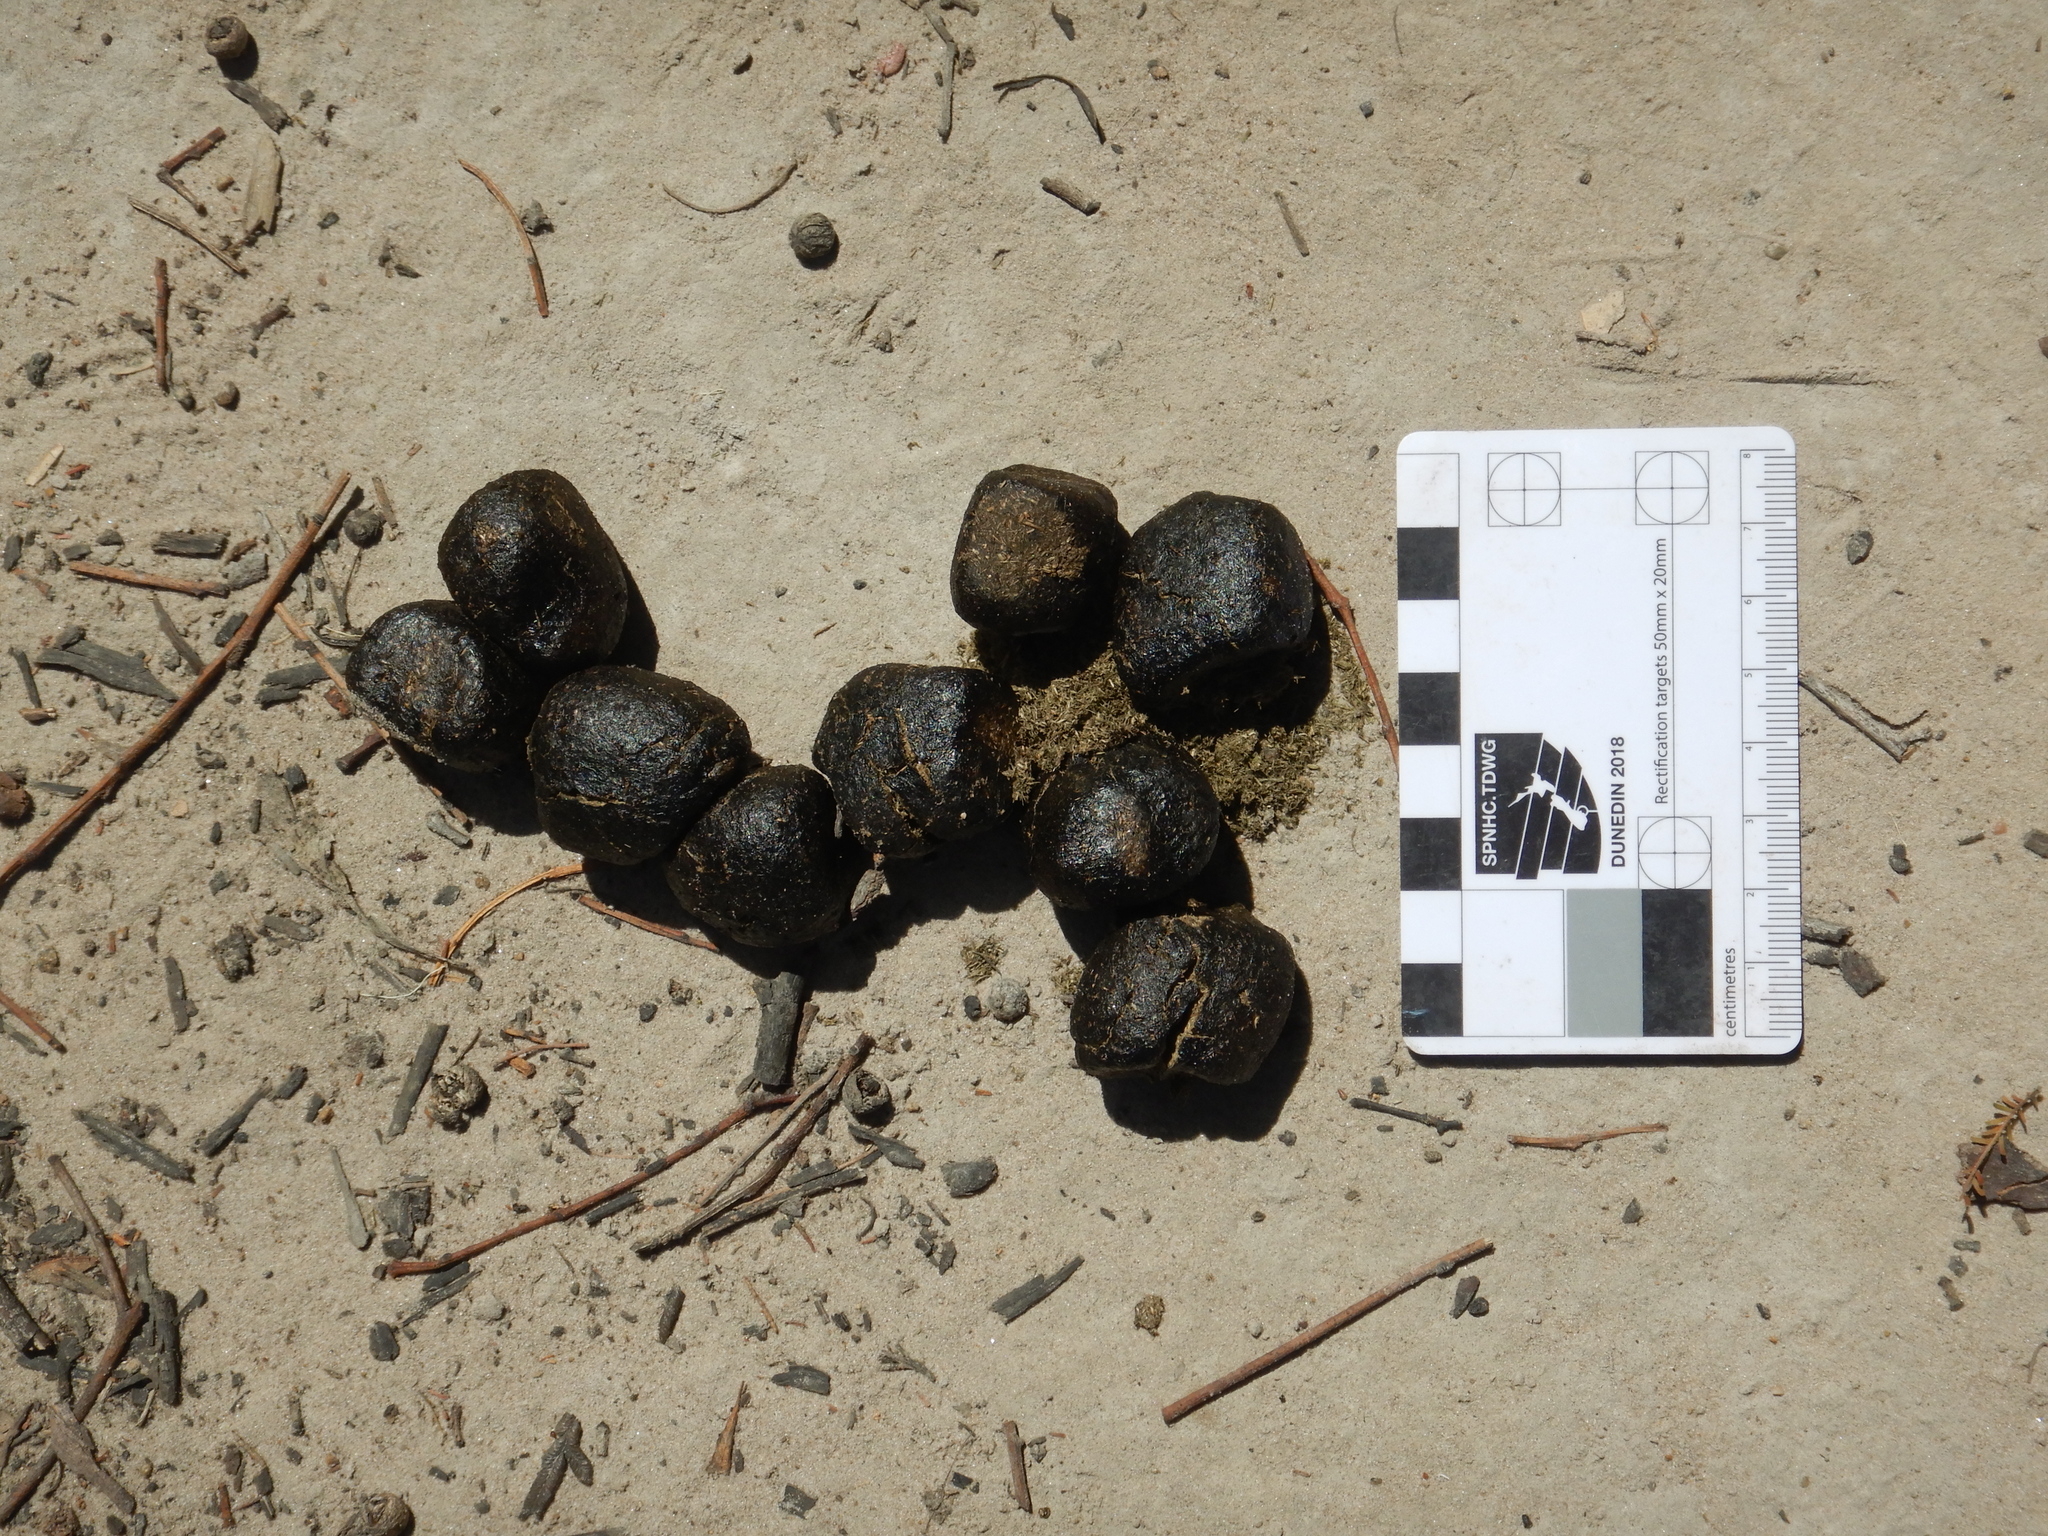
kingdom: Animalia
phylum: Chordata
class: Mammalia
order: Diprotodontia
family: Vombatidae
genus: Vombatus
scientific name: Vombatus ursinus
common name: Common wombat
